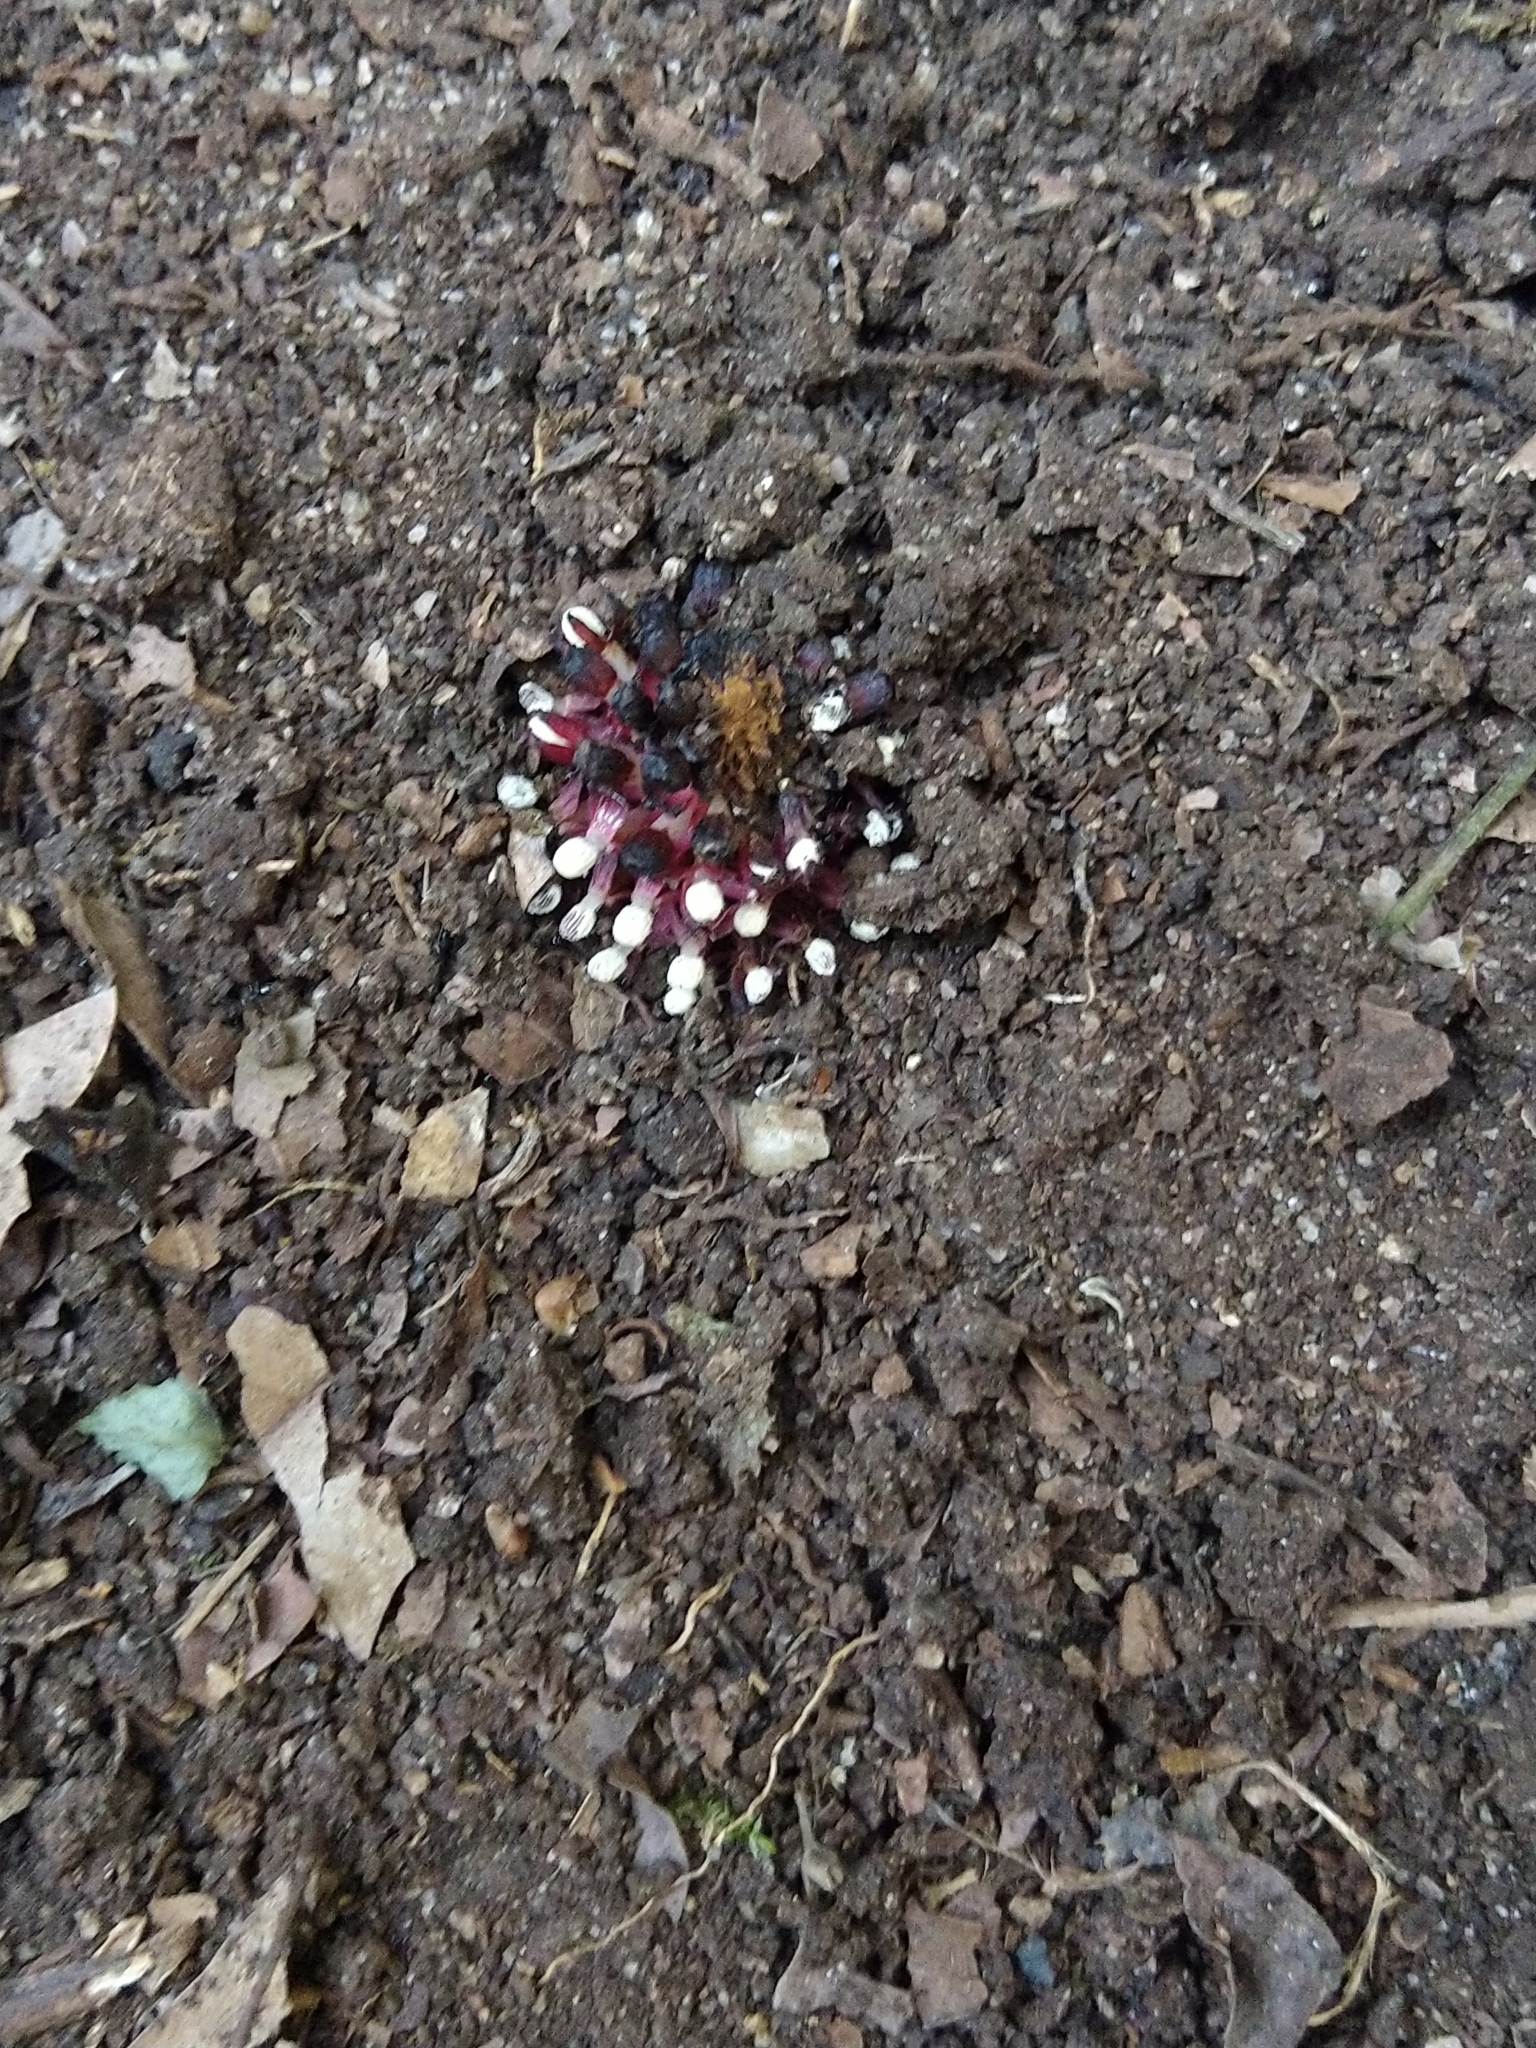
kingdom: Plantae
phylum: Tracheophyta
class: Magnoliopsida
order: Santalales
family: Balanophoraceae
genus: Balanophora
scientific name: Balanophora fungosa
